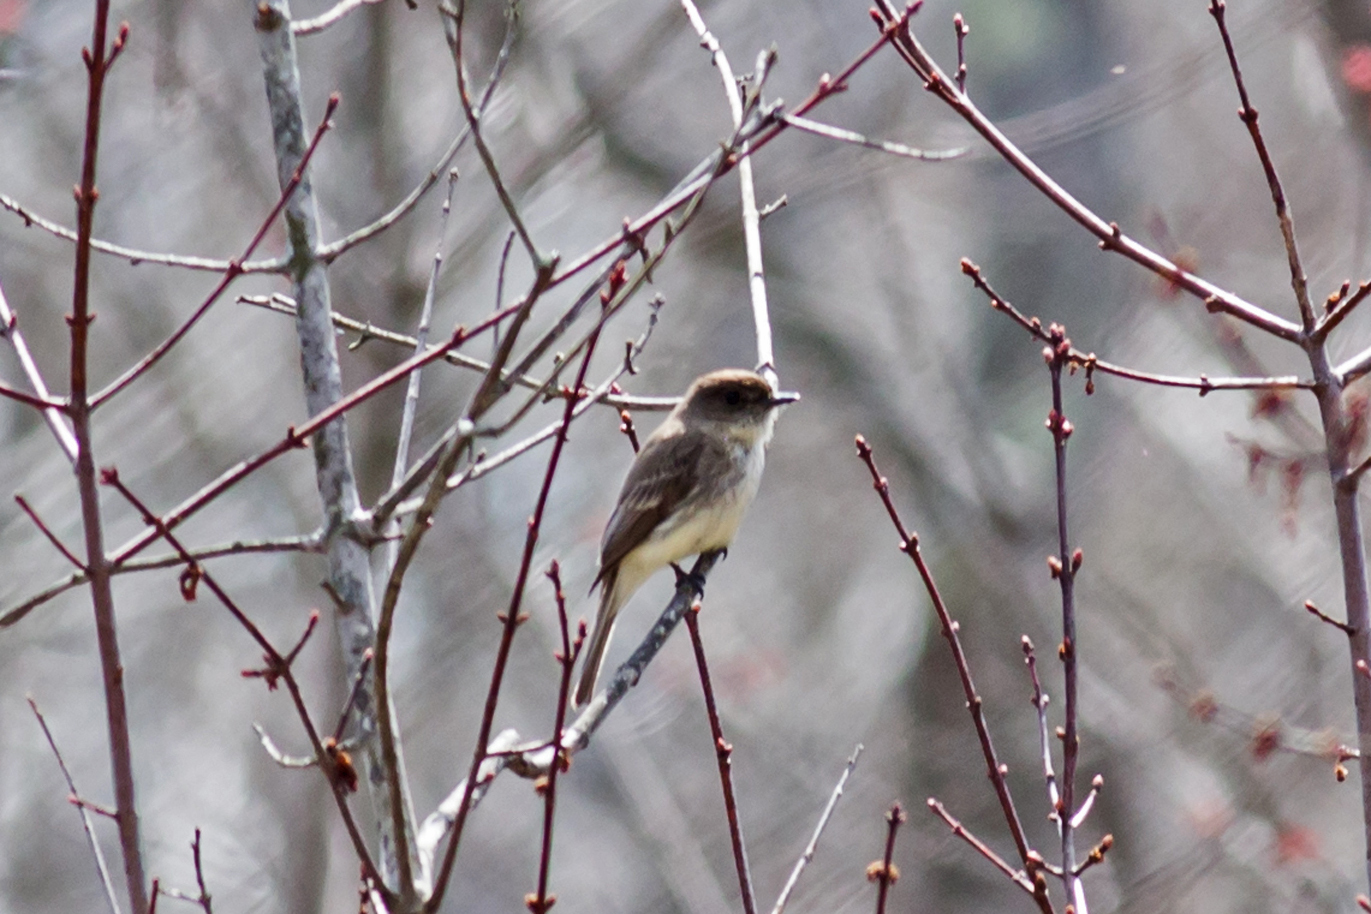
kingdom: Animalia
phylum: Chordata
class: Aves
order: Passeriformes
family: Tyrannidae
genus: Sayornis
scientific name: Sayornis phoebe
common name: Eastern phoebe
